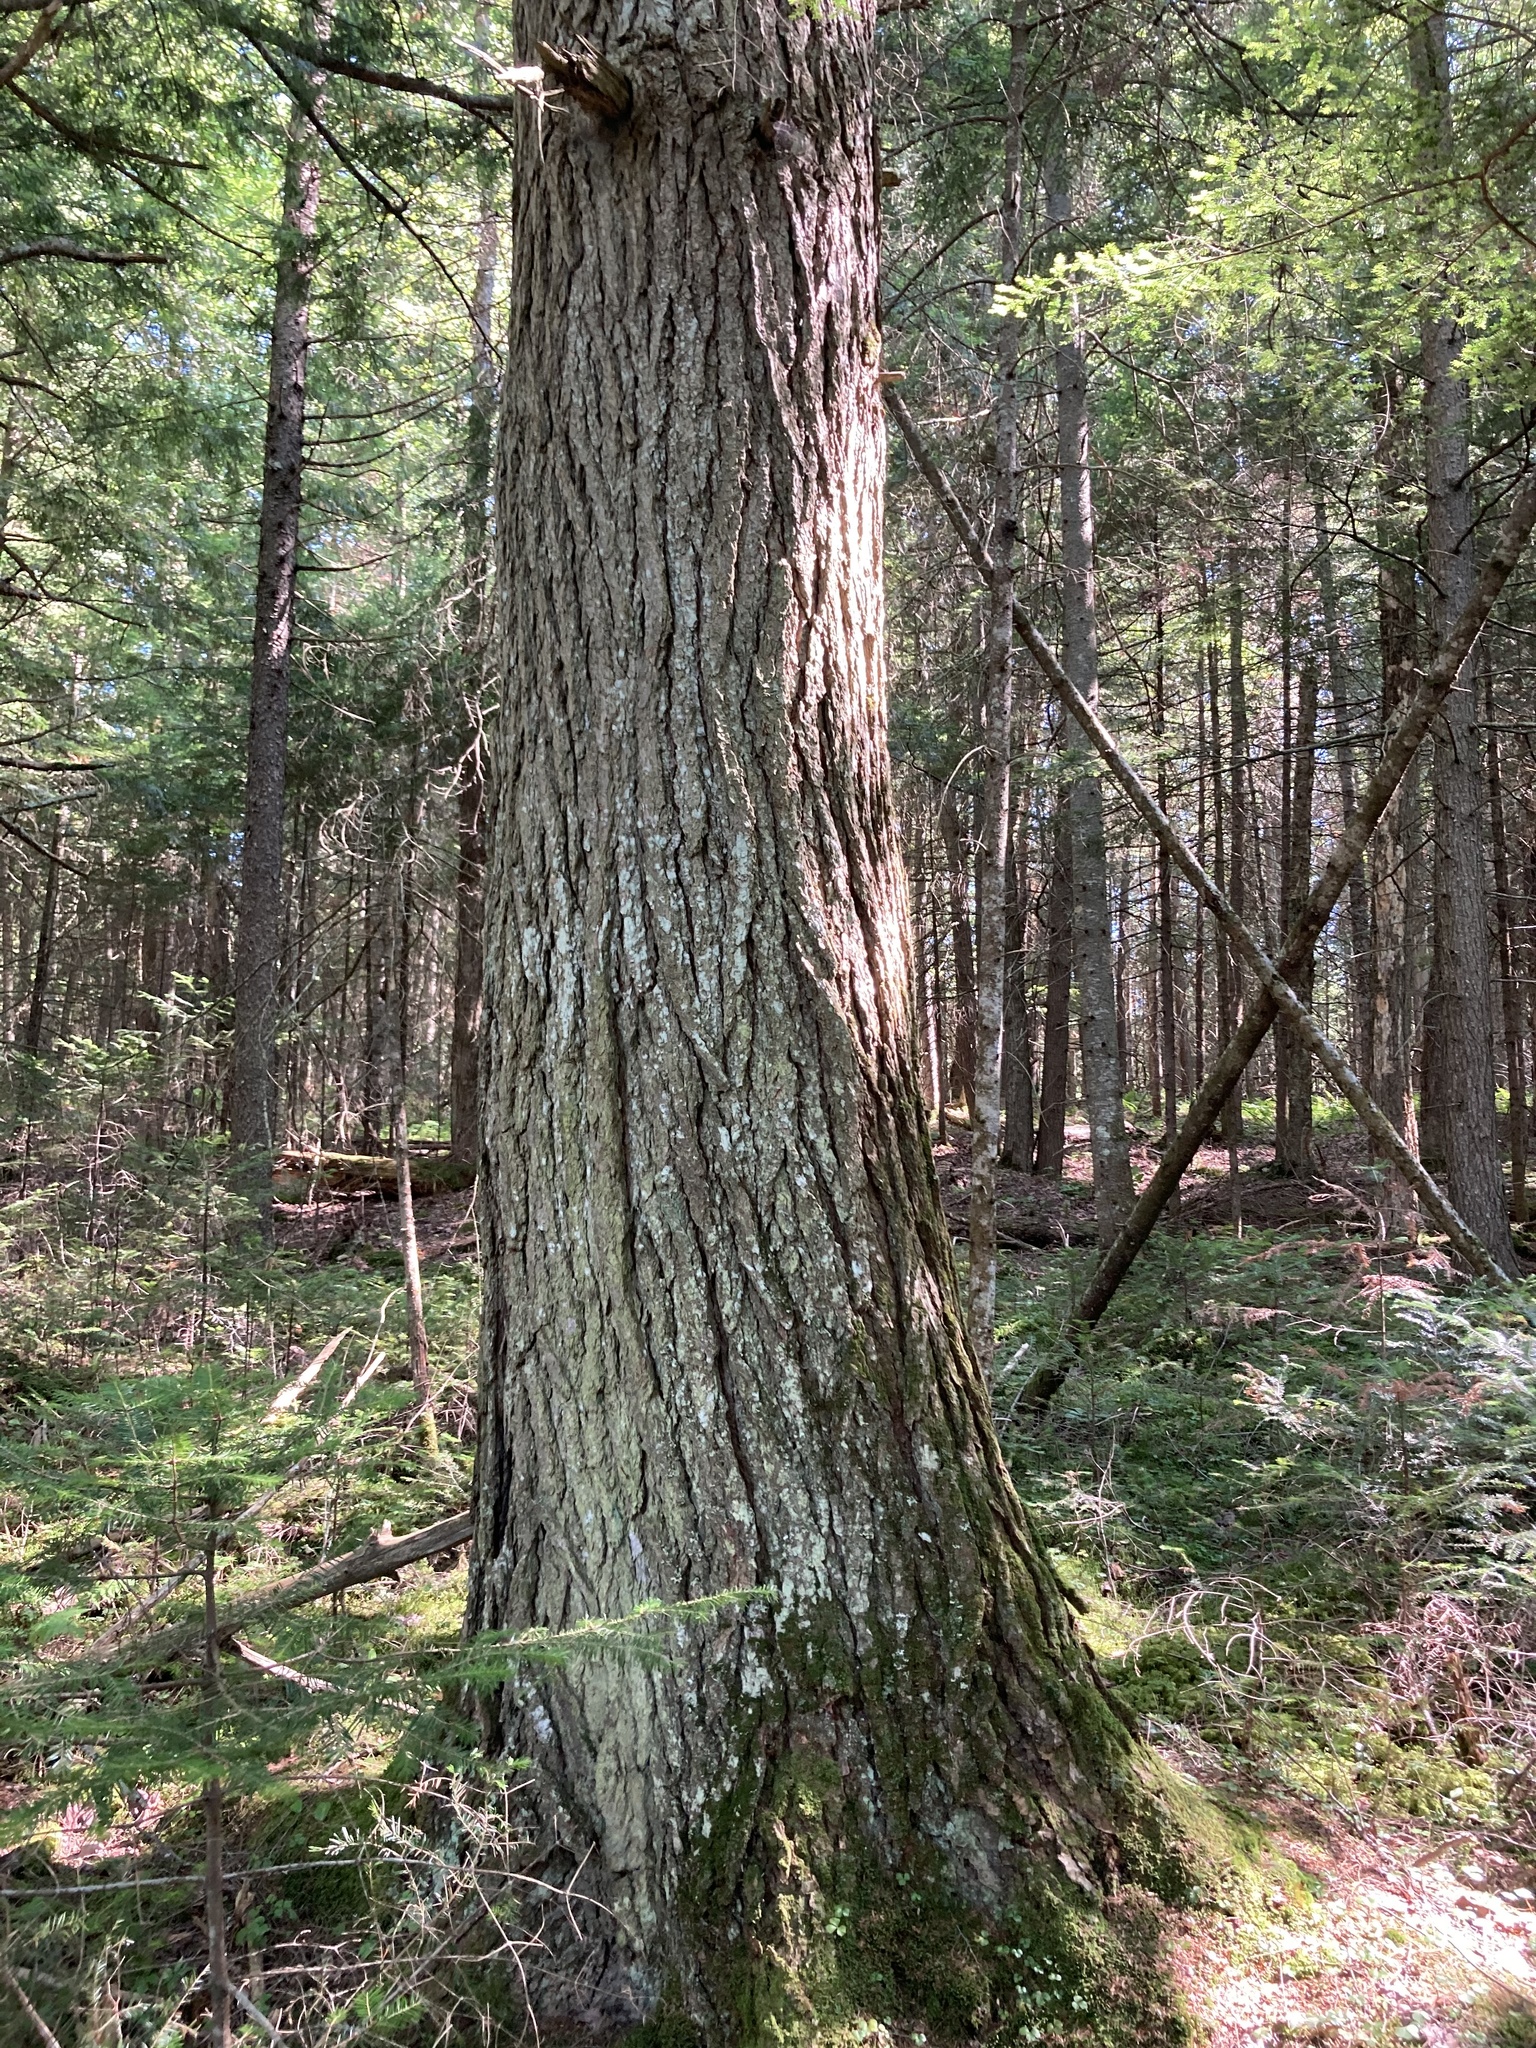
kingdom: Plantae
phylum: Tracheophyta
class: Pinopsida
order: Pinales
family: Pinaceae
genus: Tsuga
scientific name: Tsuga canadensis
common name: Eastern hemlock
